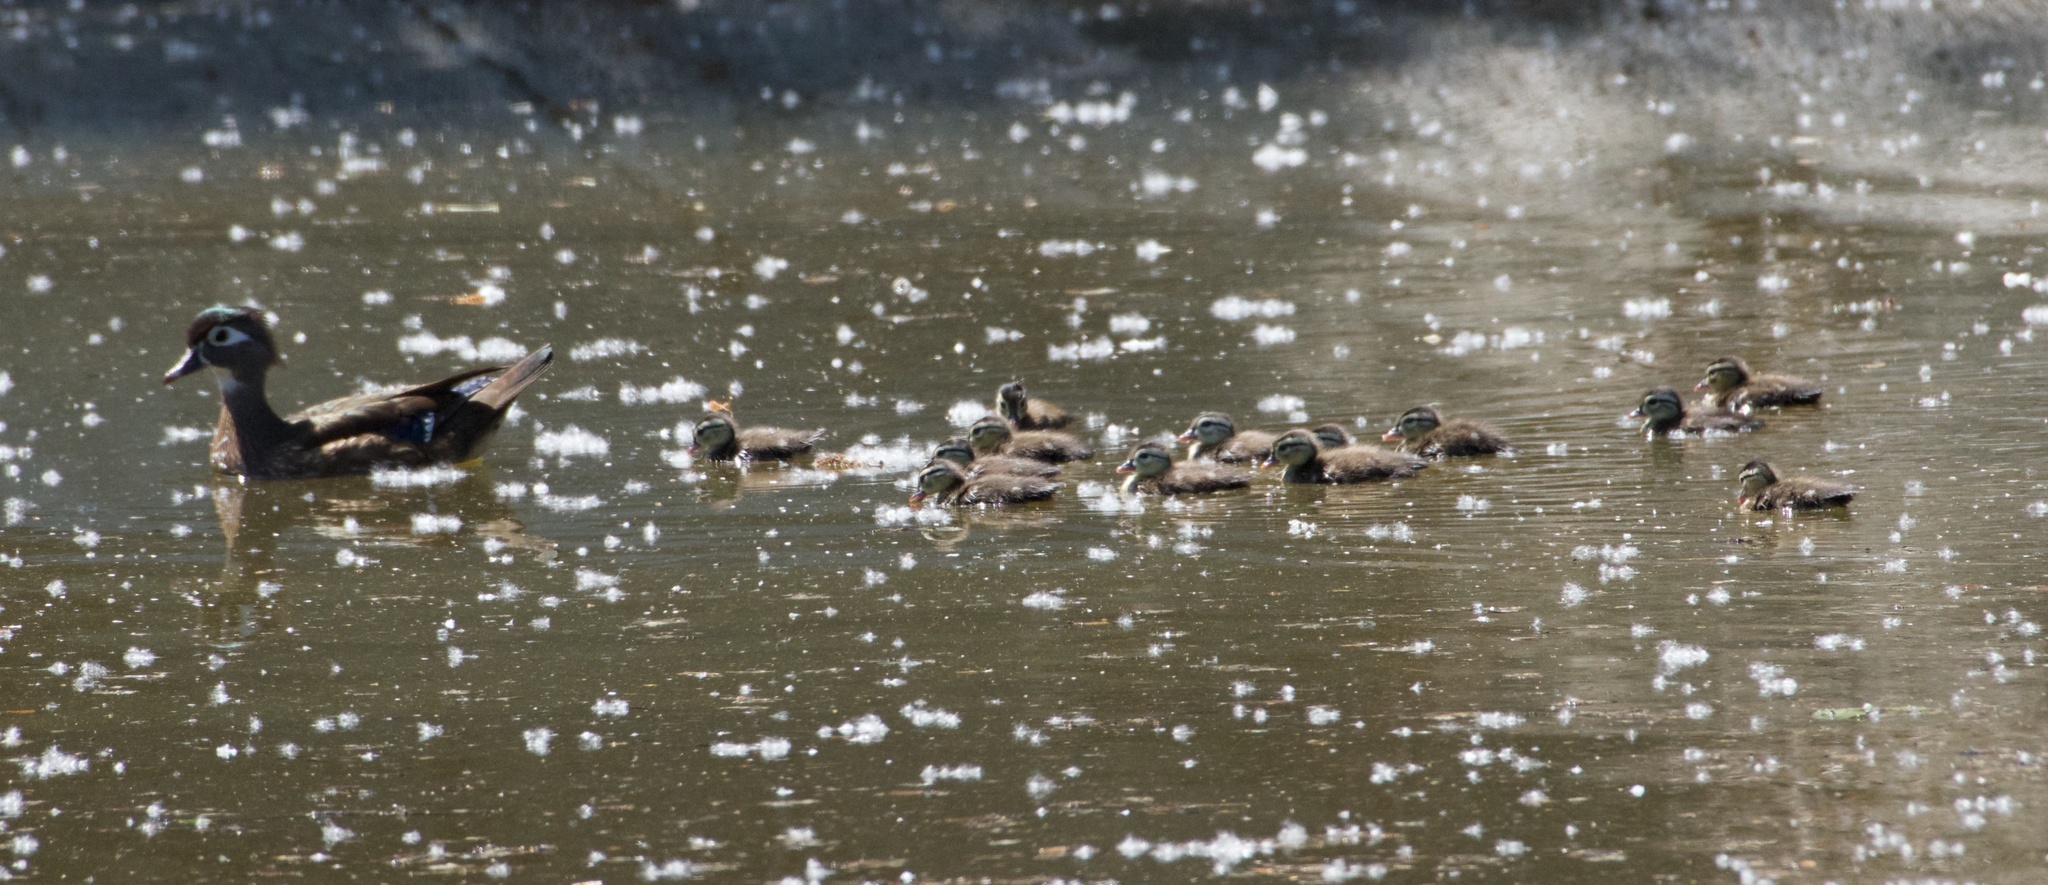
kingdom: Animalia
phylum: Chordata
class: Aves
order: Anseriformes
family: Anatidae
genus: Aix
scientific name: Aix sponsa
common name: Wood duck
